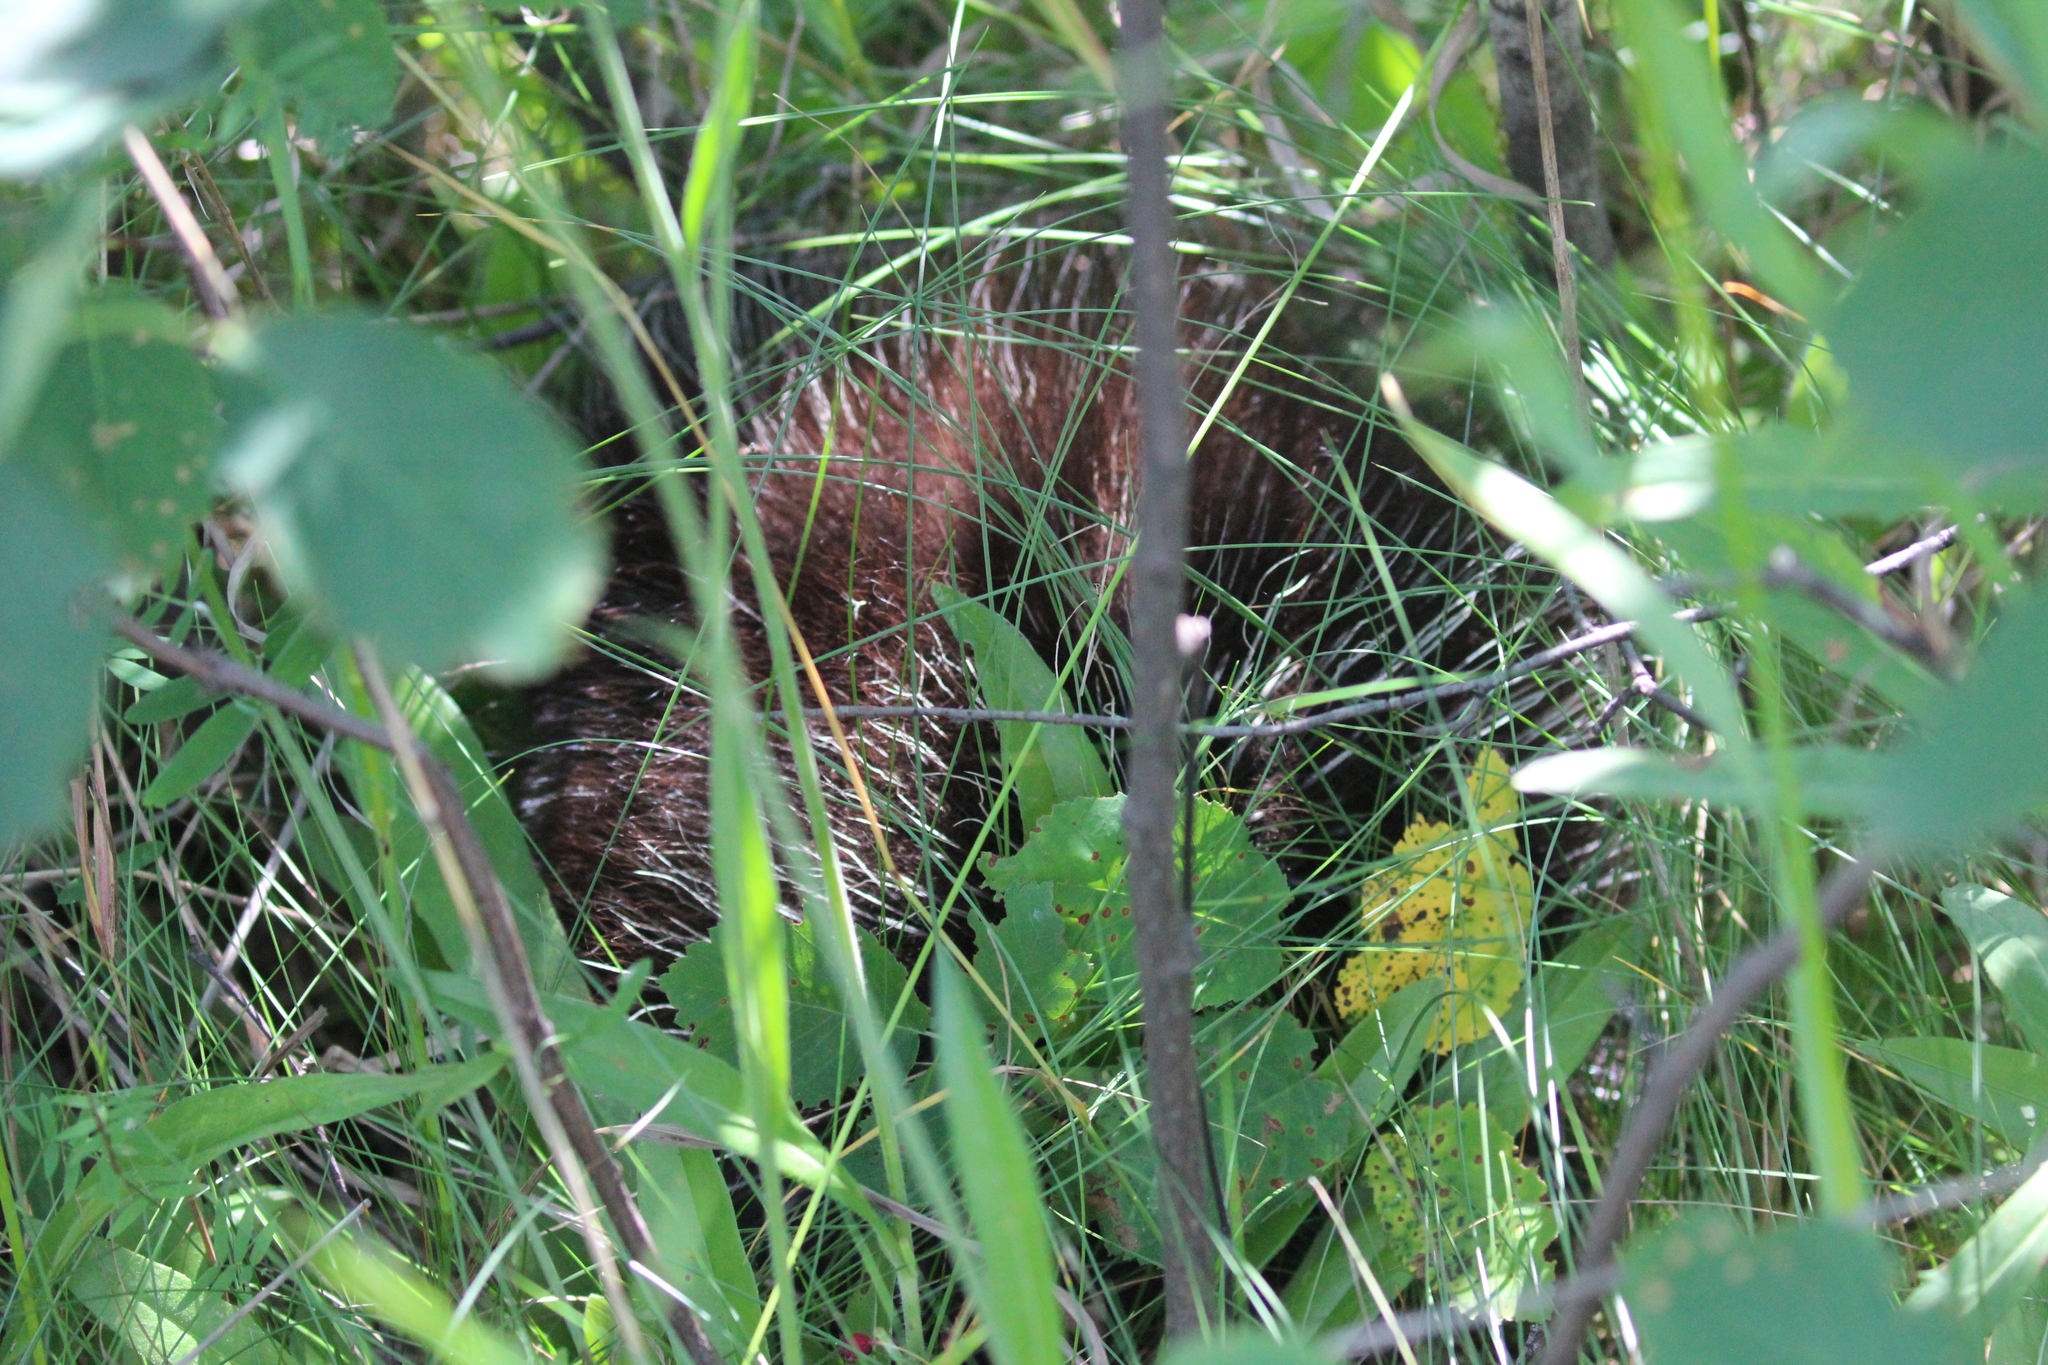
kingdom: Animalia
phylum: Chordata
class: Mammalia
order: Rodentia
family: Erethizontidae
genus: Erethizon
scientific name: Erethizon dorsatus
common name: North american porcupine
